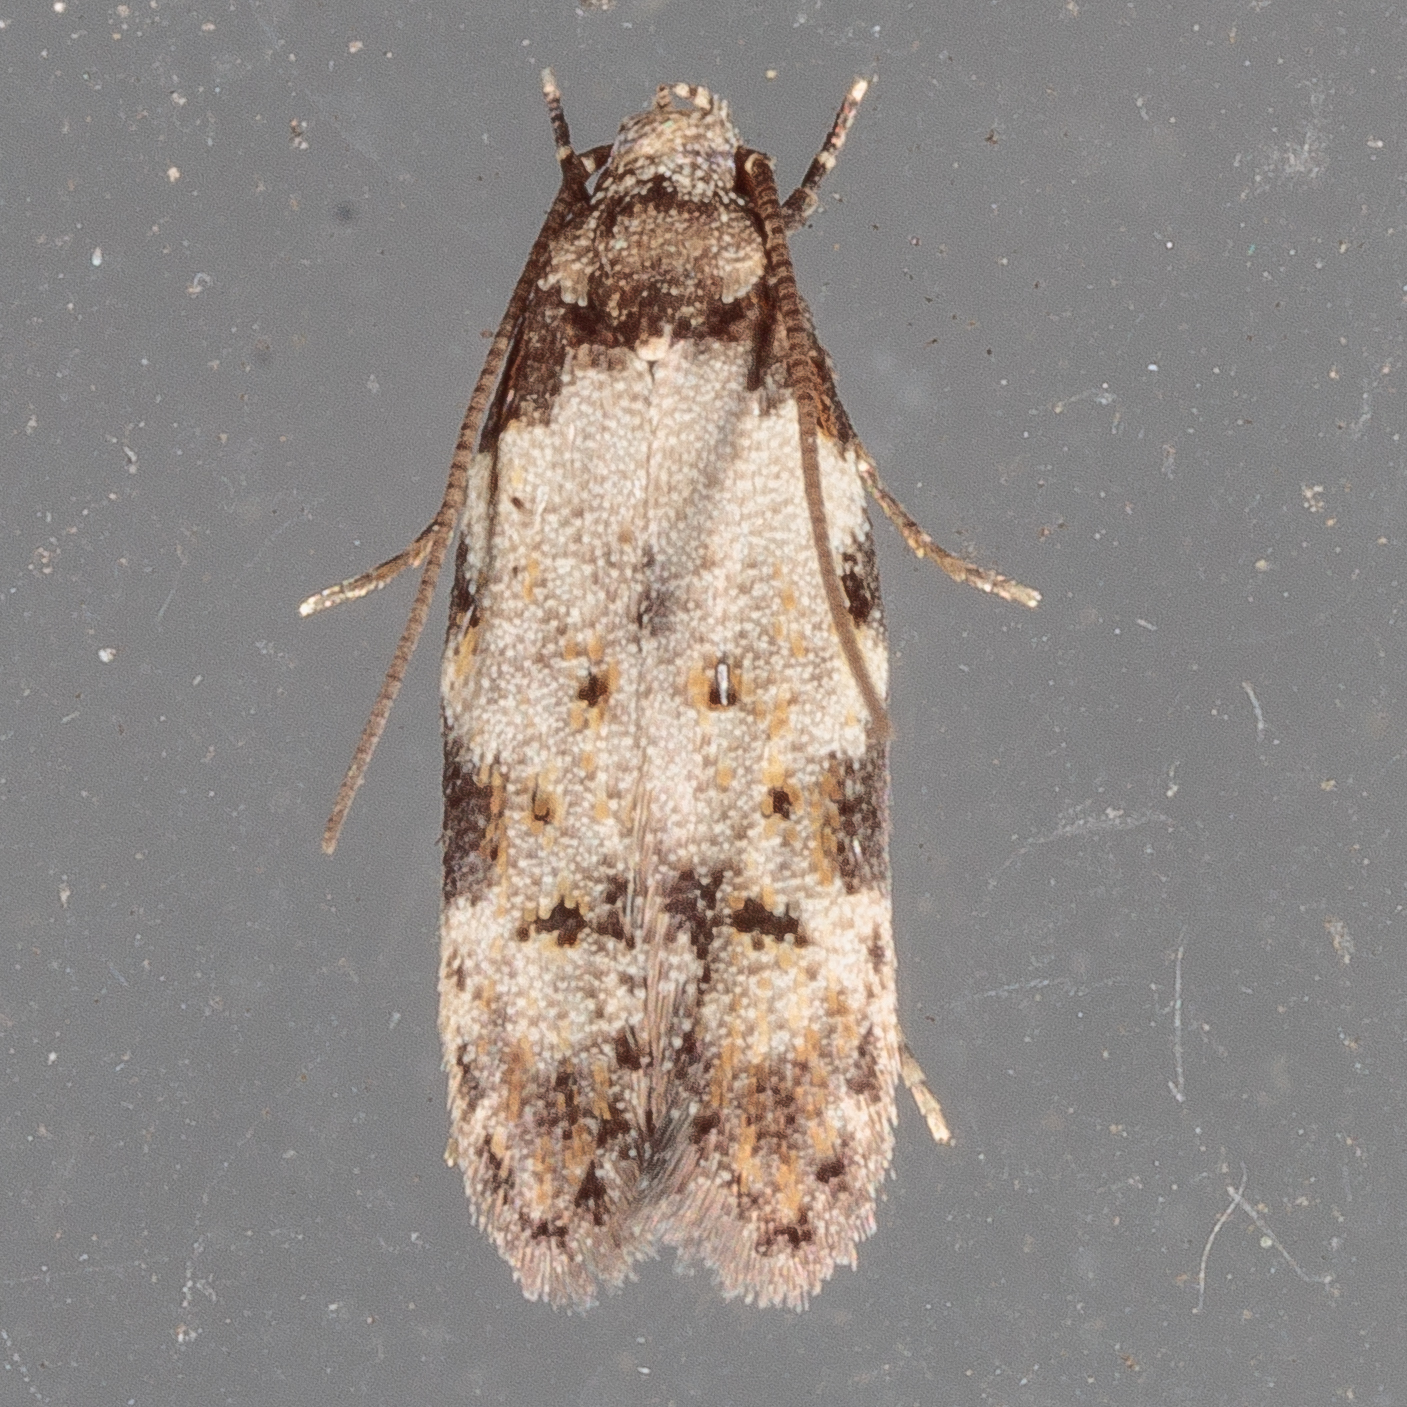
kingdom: Animalia
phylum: Arthropoda
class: Insecta
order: Lepidoptera
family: Autostichidae
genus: Taygete
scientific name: Taygete attributella
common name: Triangle-marked twirler moth
